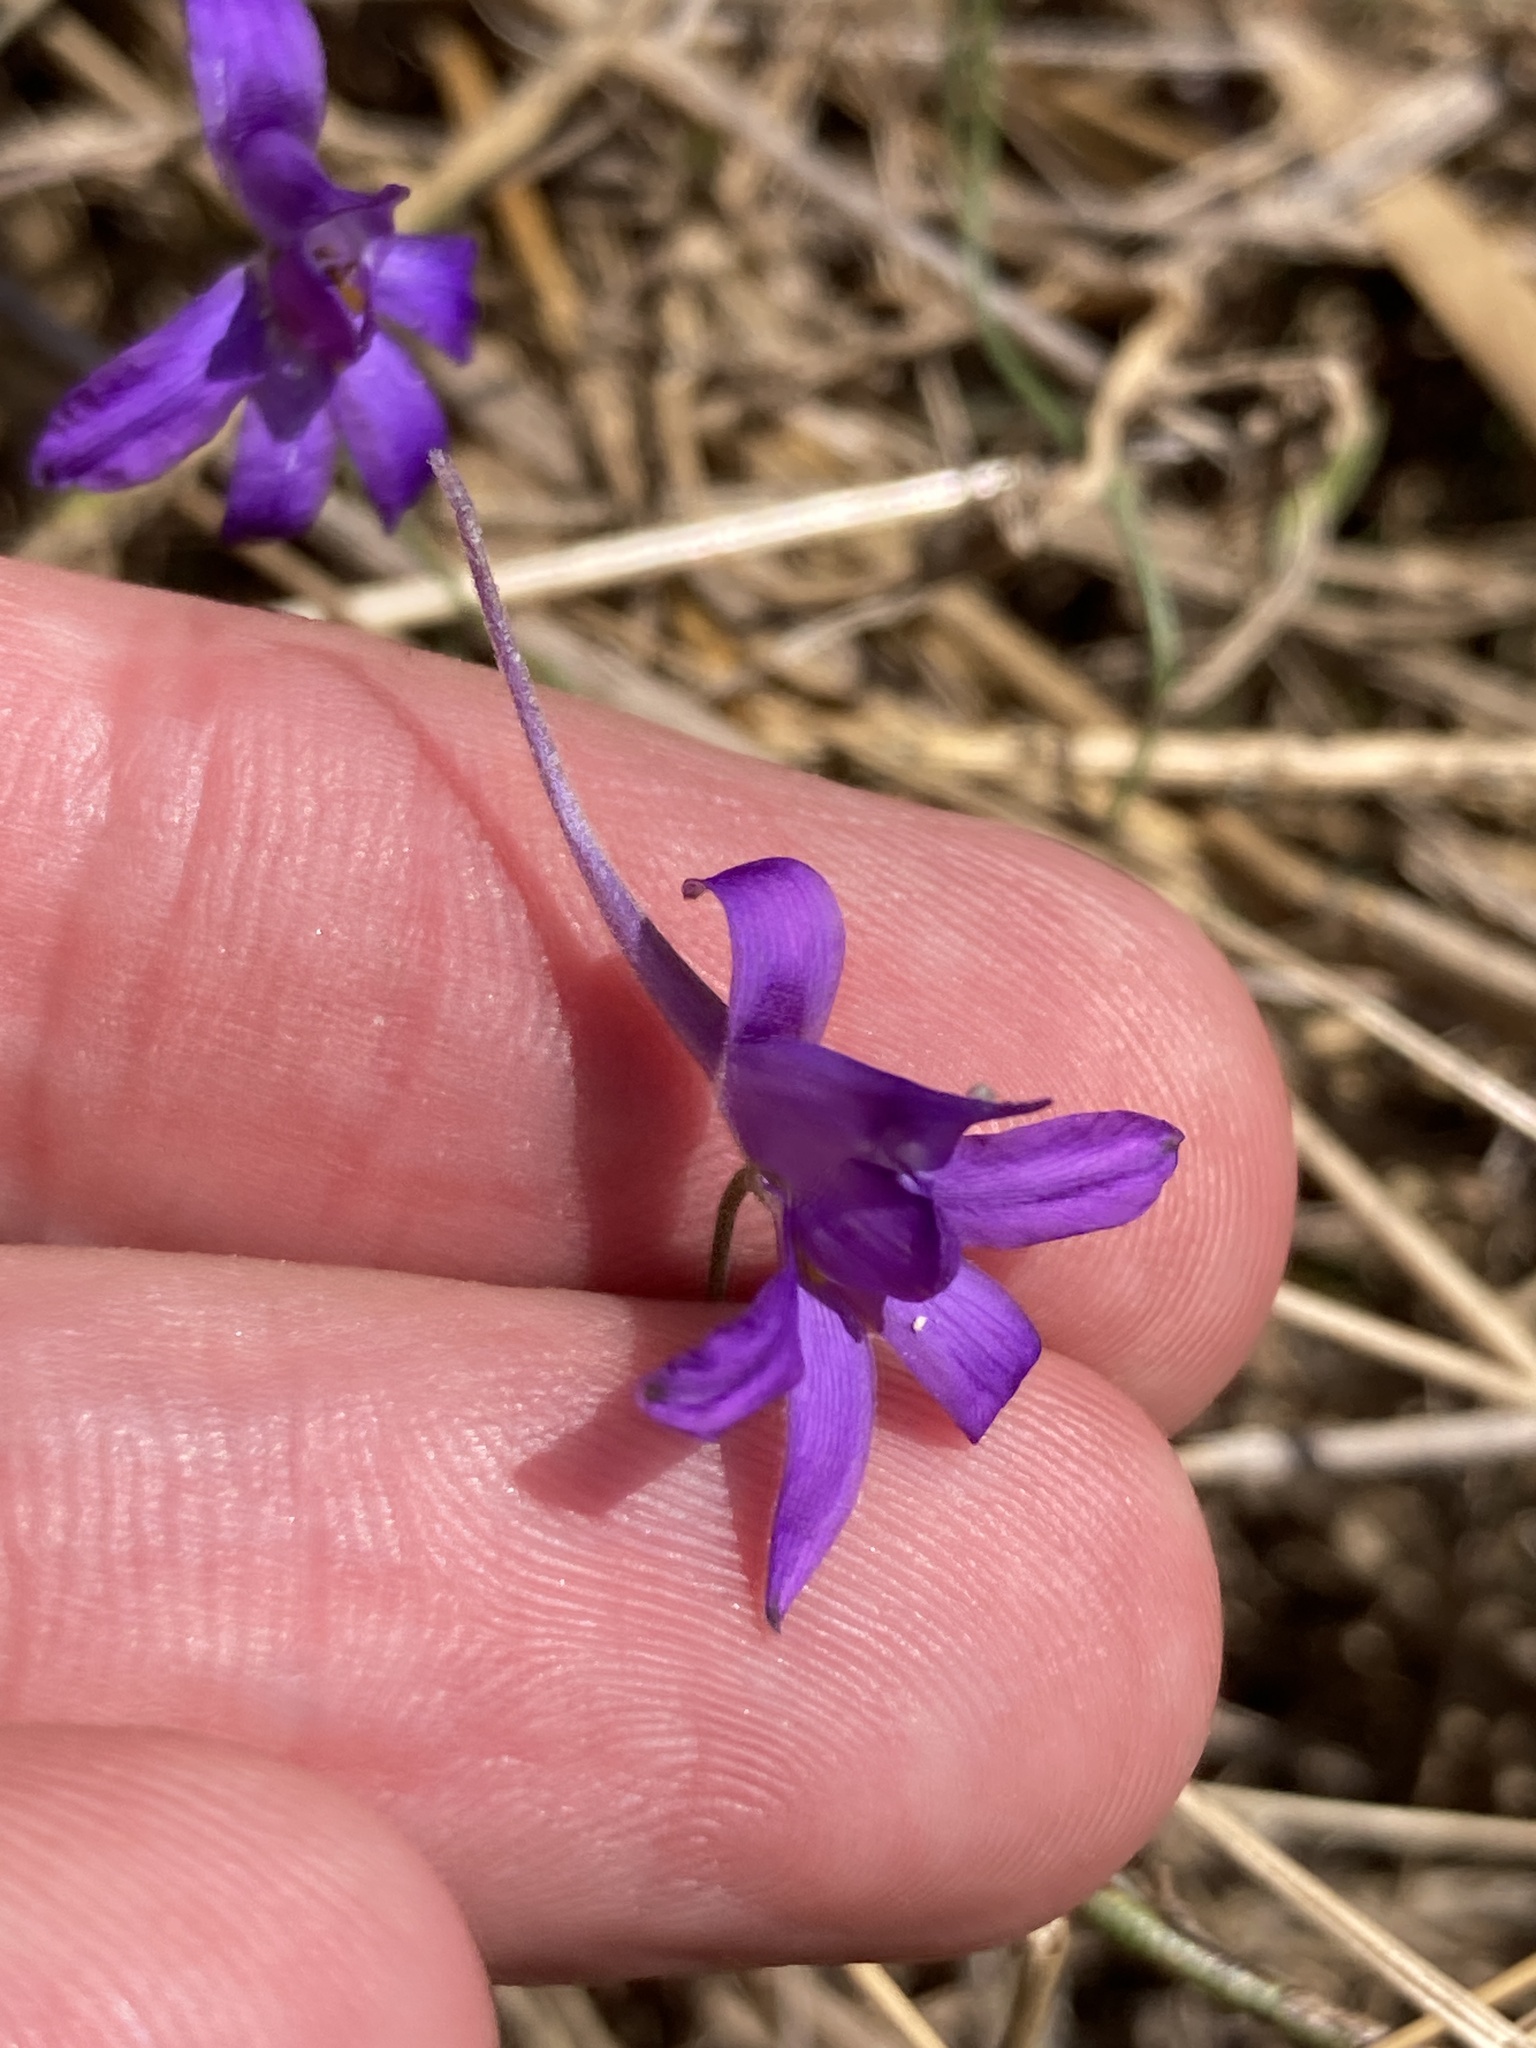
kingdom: Plantae
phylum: Tracheophyta
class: Magnoliopsida
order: Ranunculales
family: Ranunculaceae
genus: Delphinium
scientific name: Delphinium consolida
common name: Branching larkspur
